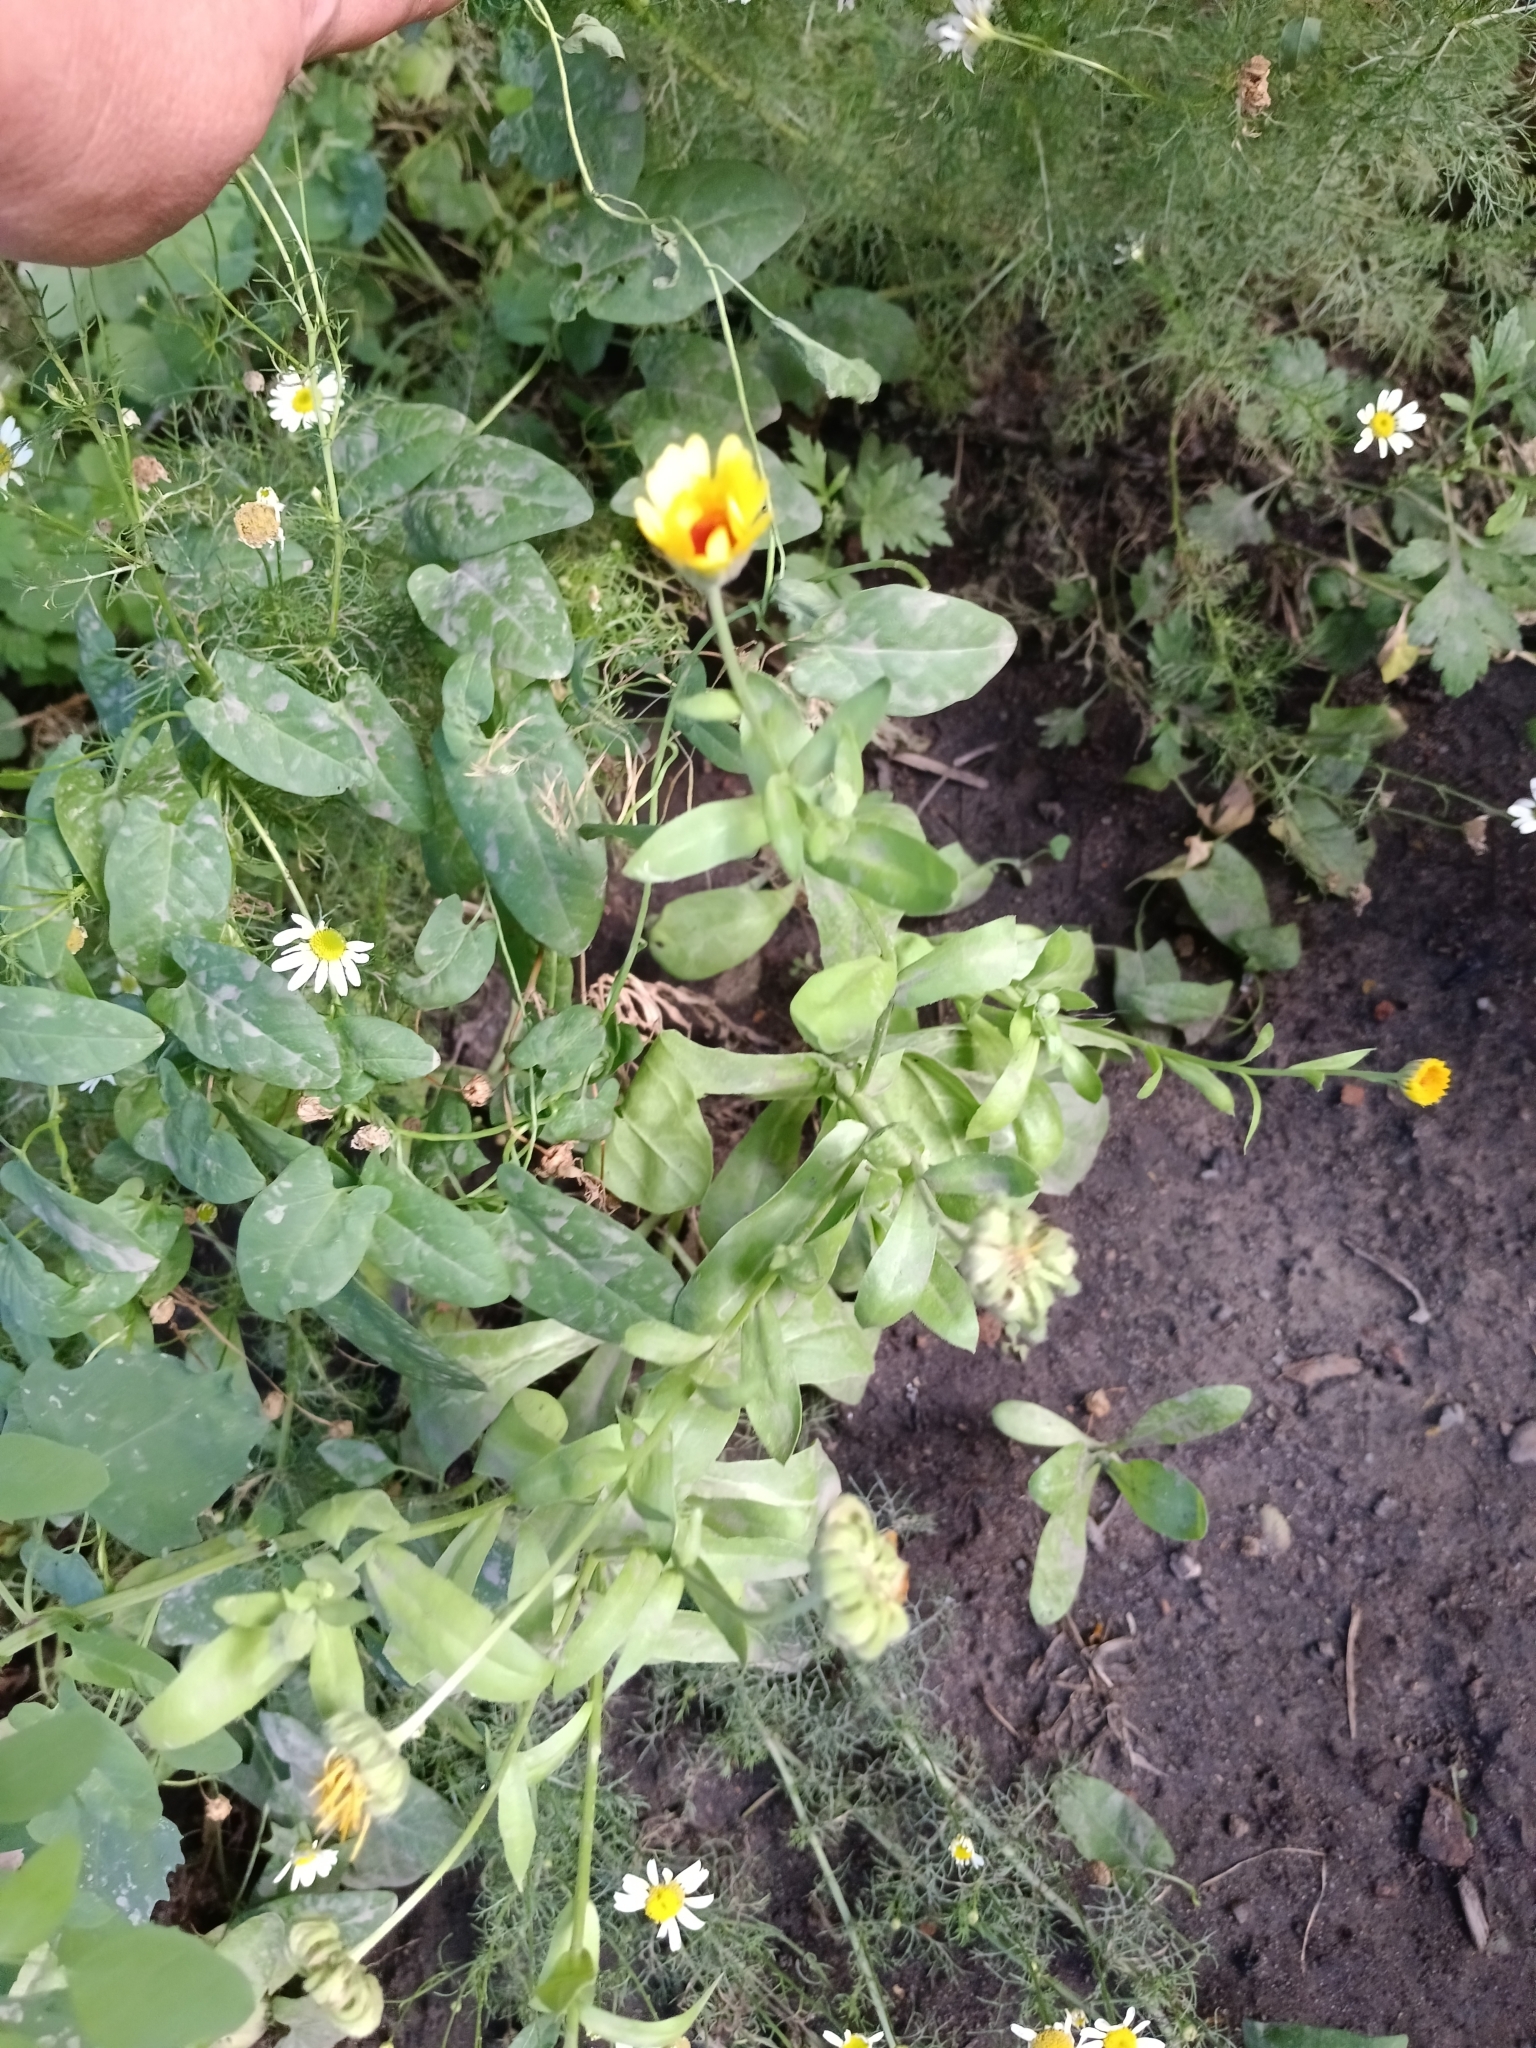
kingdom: Plantae
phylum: Tracheophyta
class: Magnoliopsida
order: Asterales
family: Asteraceae
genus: Calendula
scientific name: Calendula officinalis
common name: Pot marigold
